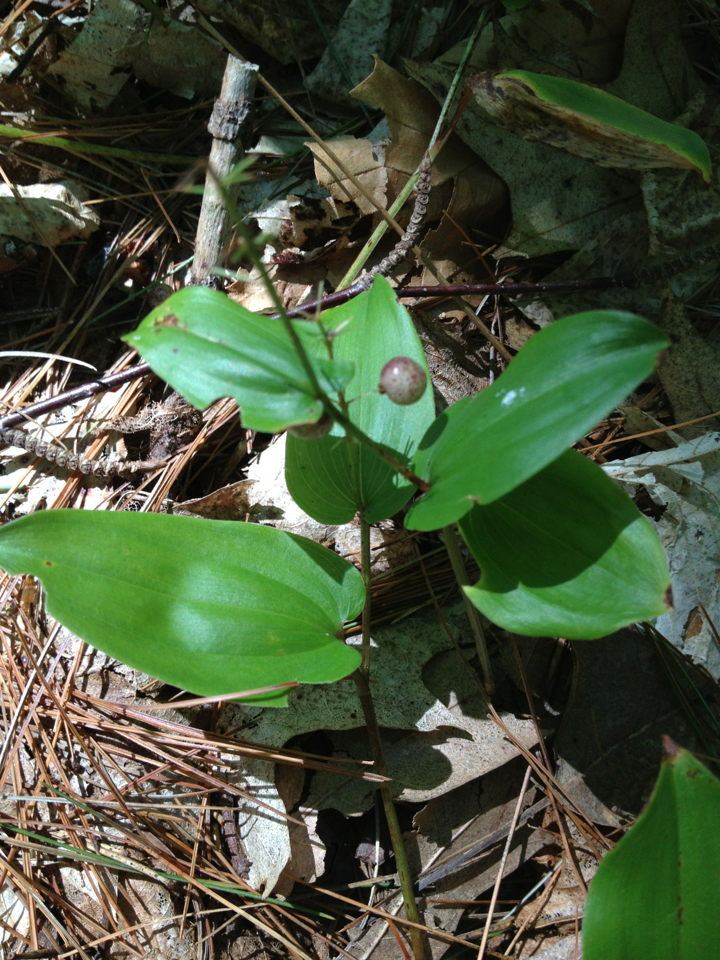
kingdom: Plantae
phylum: Tracheophyta
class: Liliopsida
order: Asparagales
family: Asparagaceae
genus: Maianthemum
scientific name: Maianthemum canadense
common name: False lily-of-the-valley
